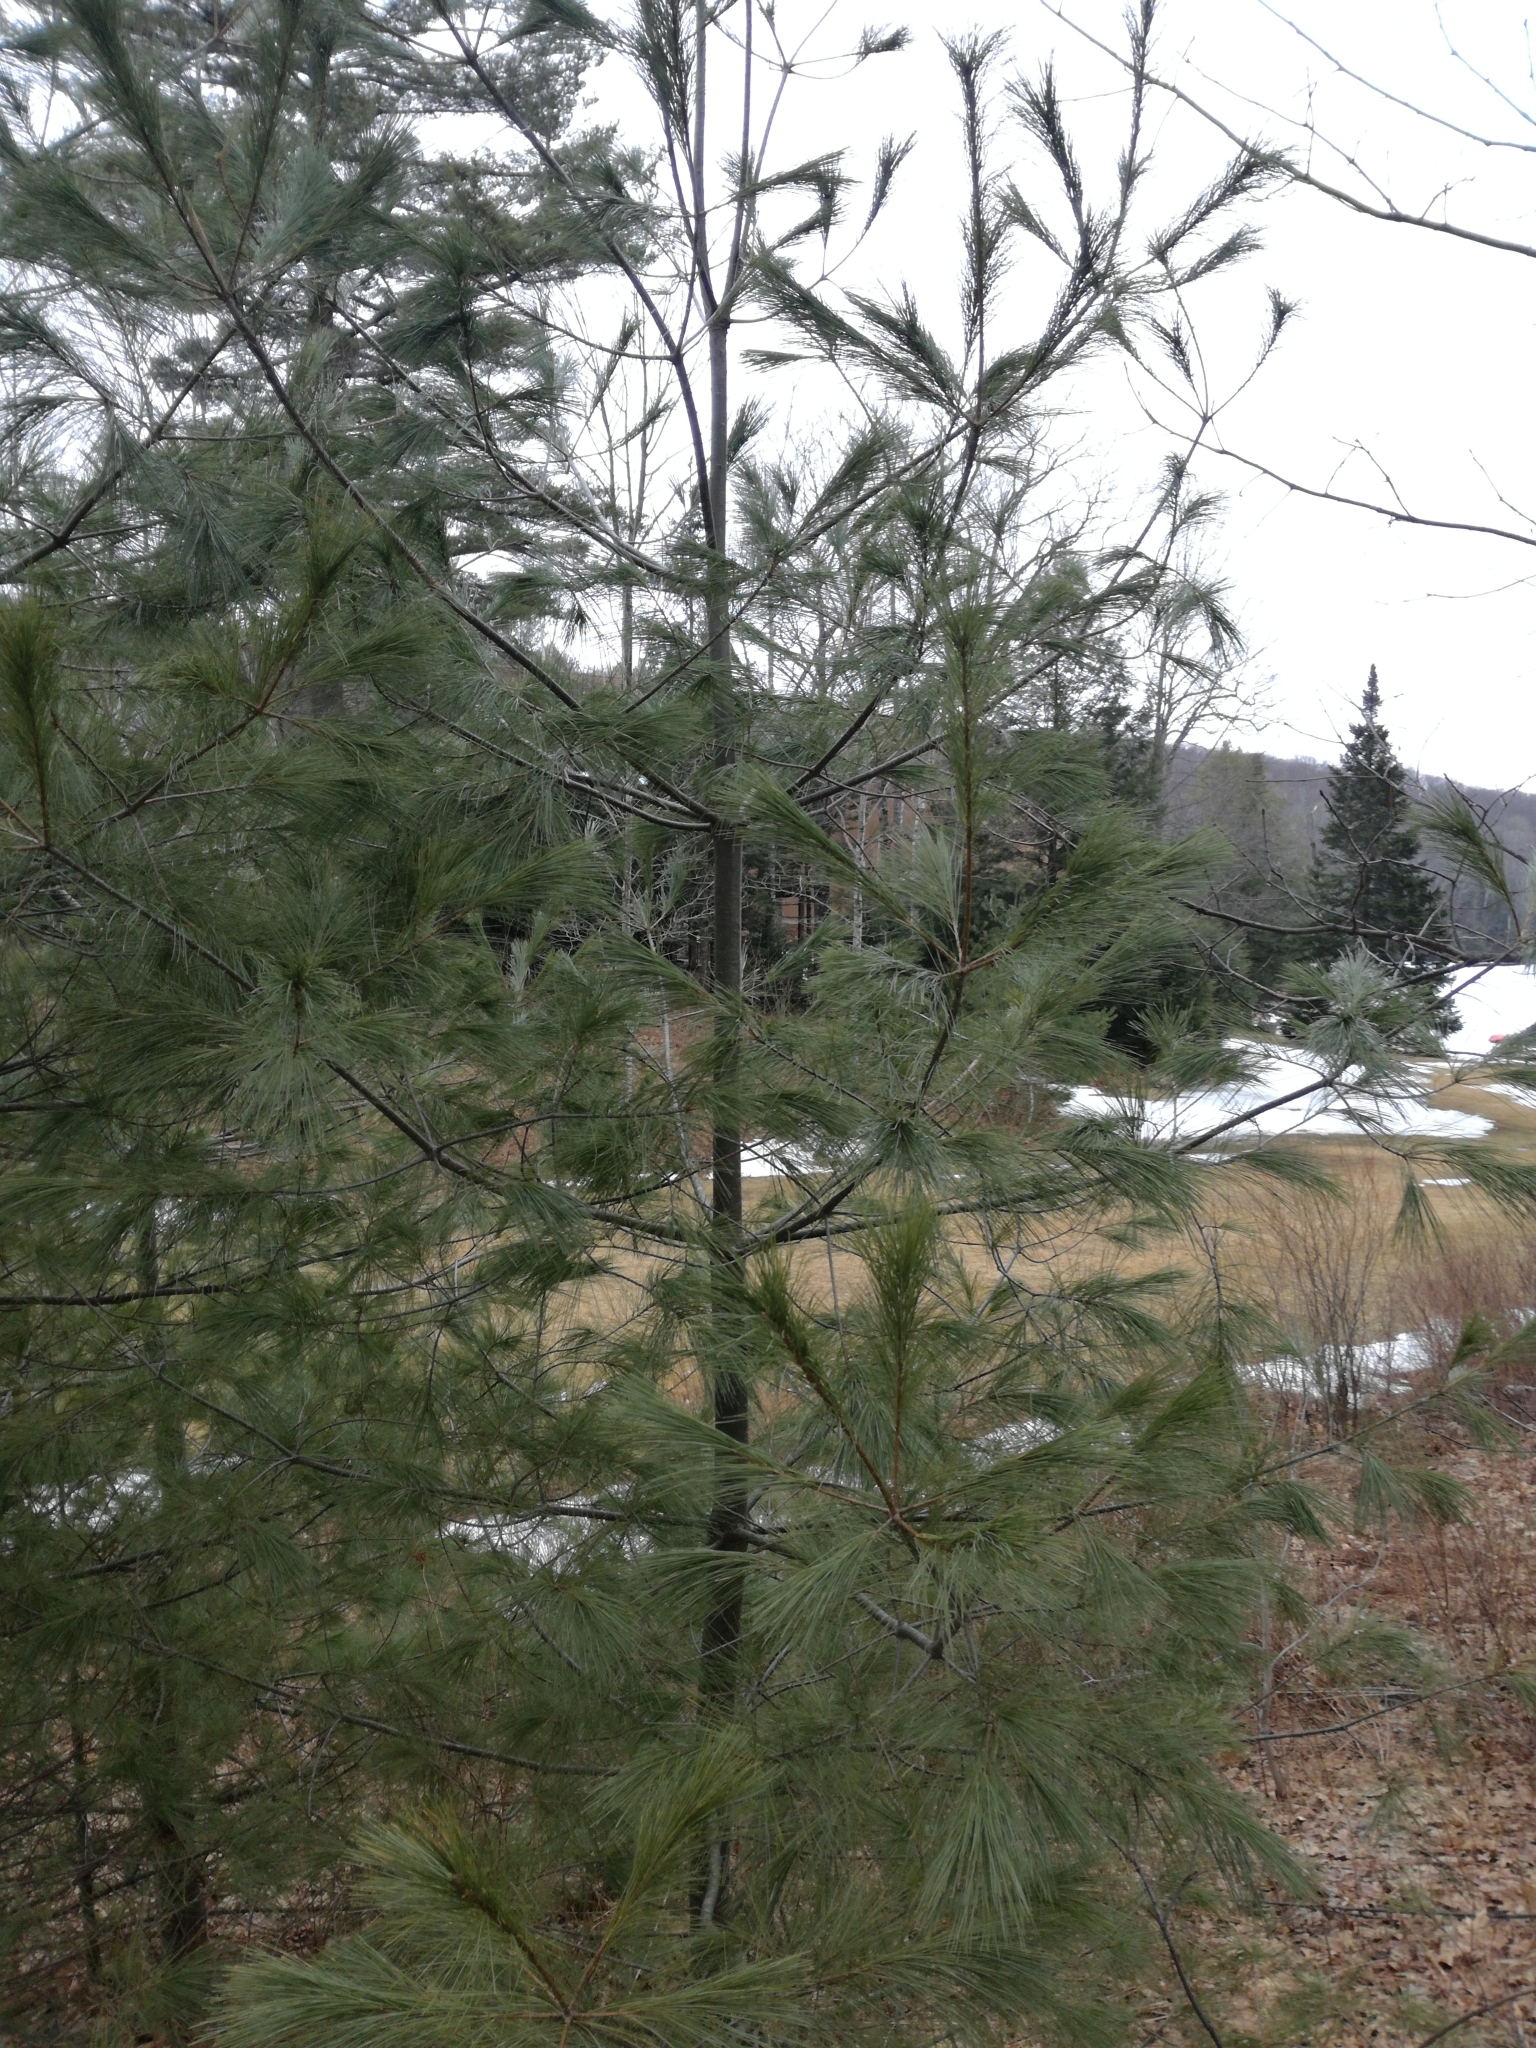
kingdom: Plantae
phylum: Tracheophyta
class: Pinopsida
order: Pinales
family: Pinaceae
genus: Pinus
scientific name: Pinus strobus
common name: Weymouth pine
